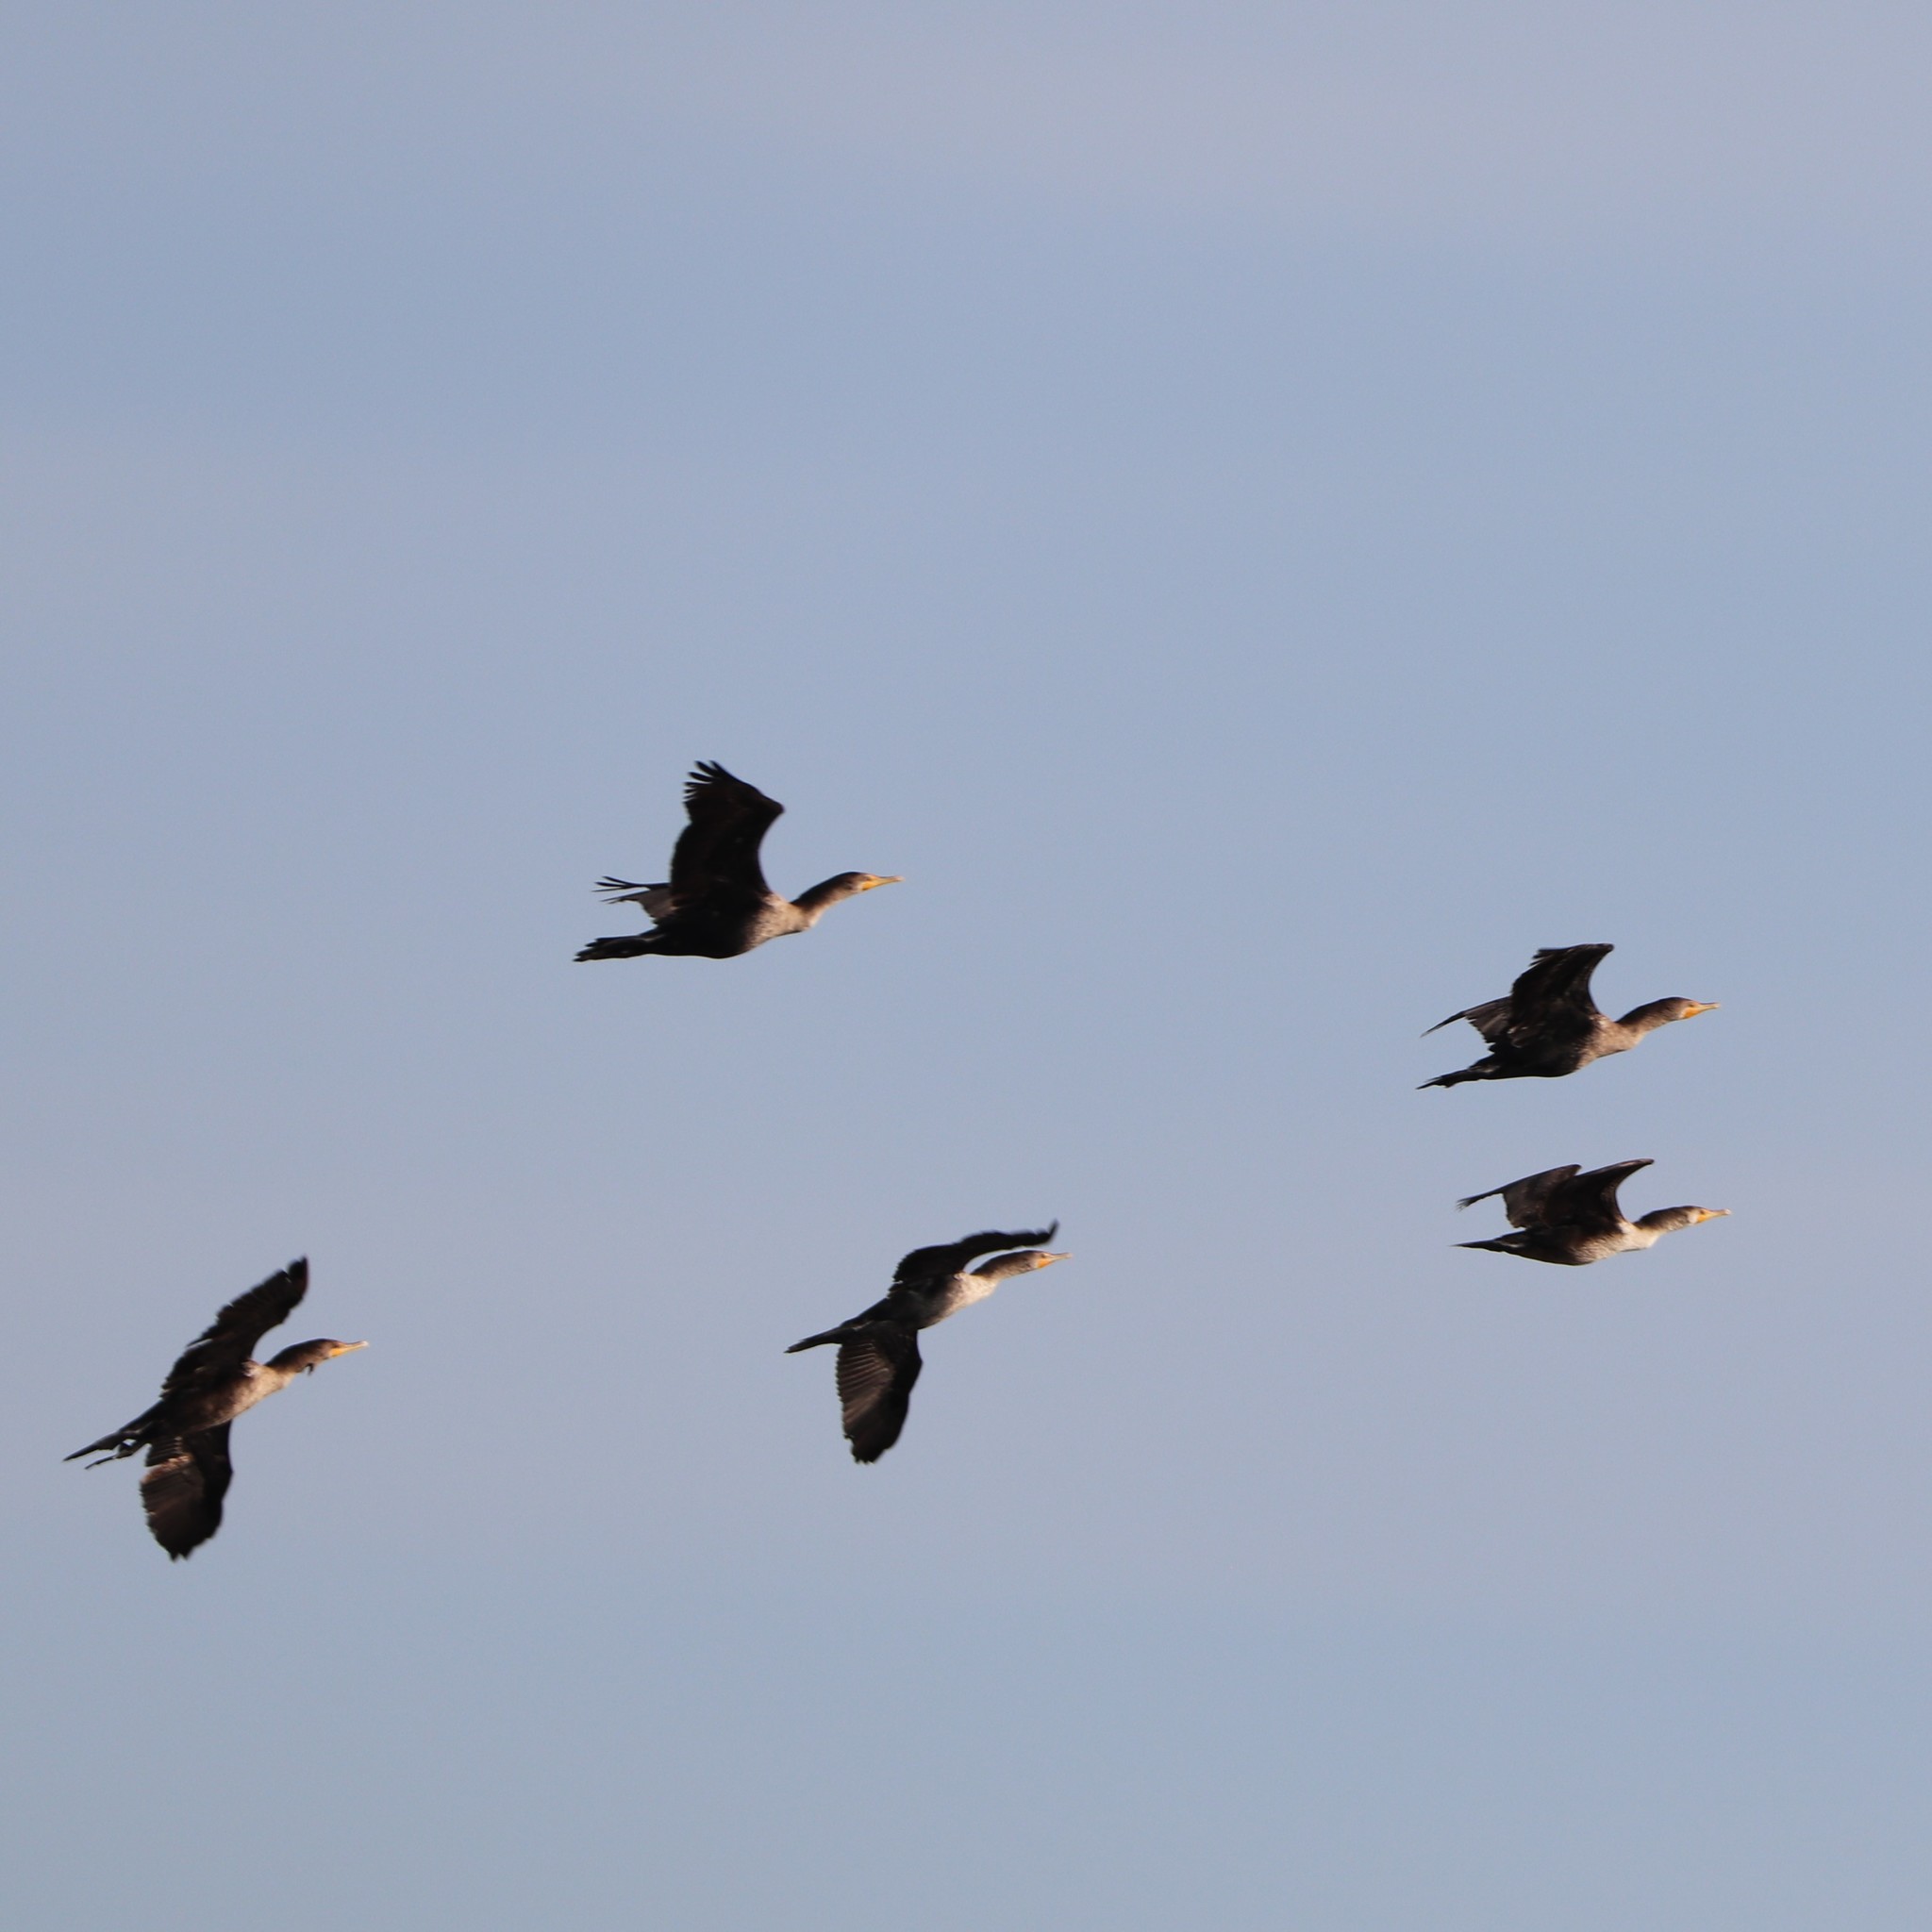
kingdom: Animalia
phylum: Chordata
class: Aves
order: Suliformes
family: Phalacrocoracidae
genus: Phalacrocorax
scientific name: Phalacrocorax auritus
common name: Double-crested cormorant
